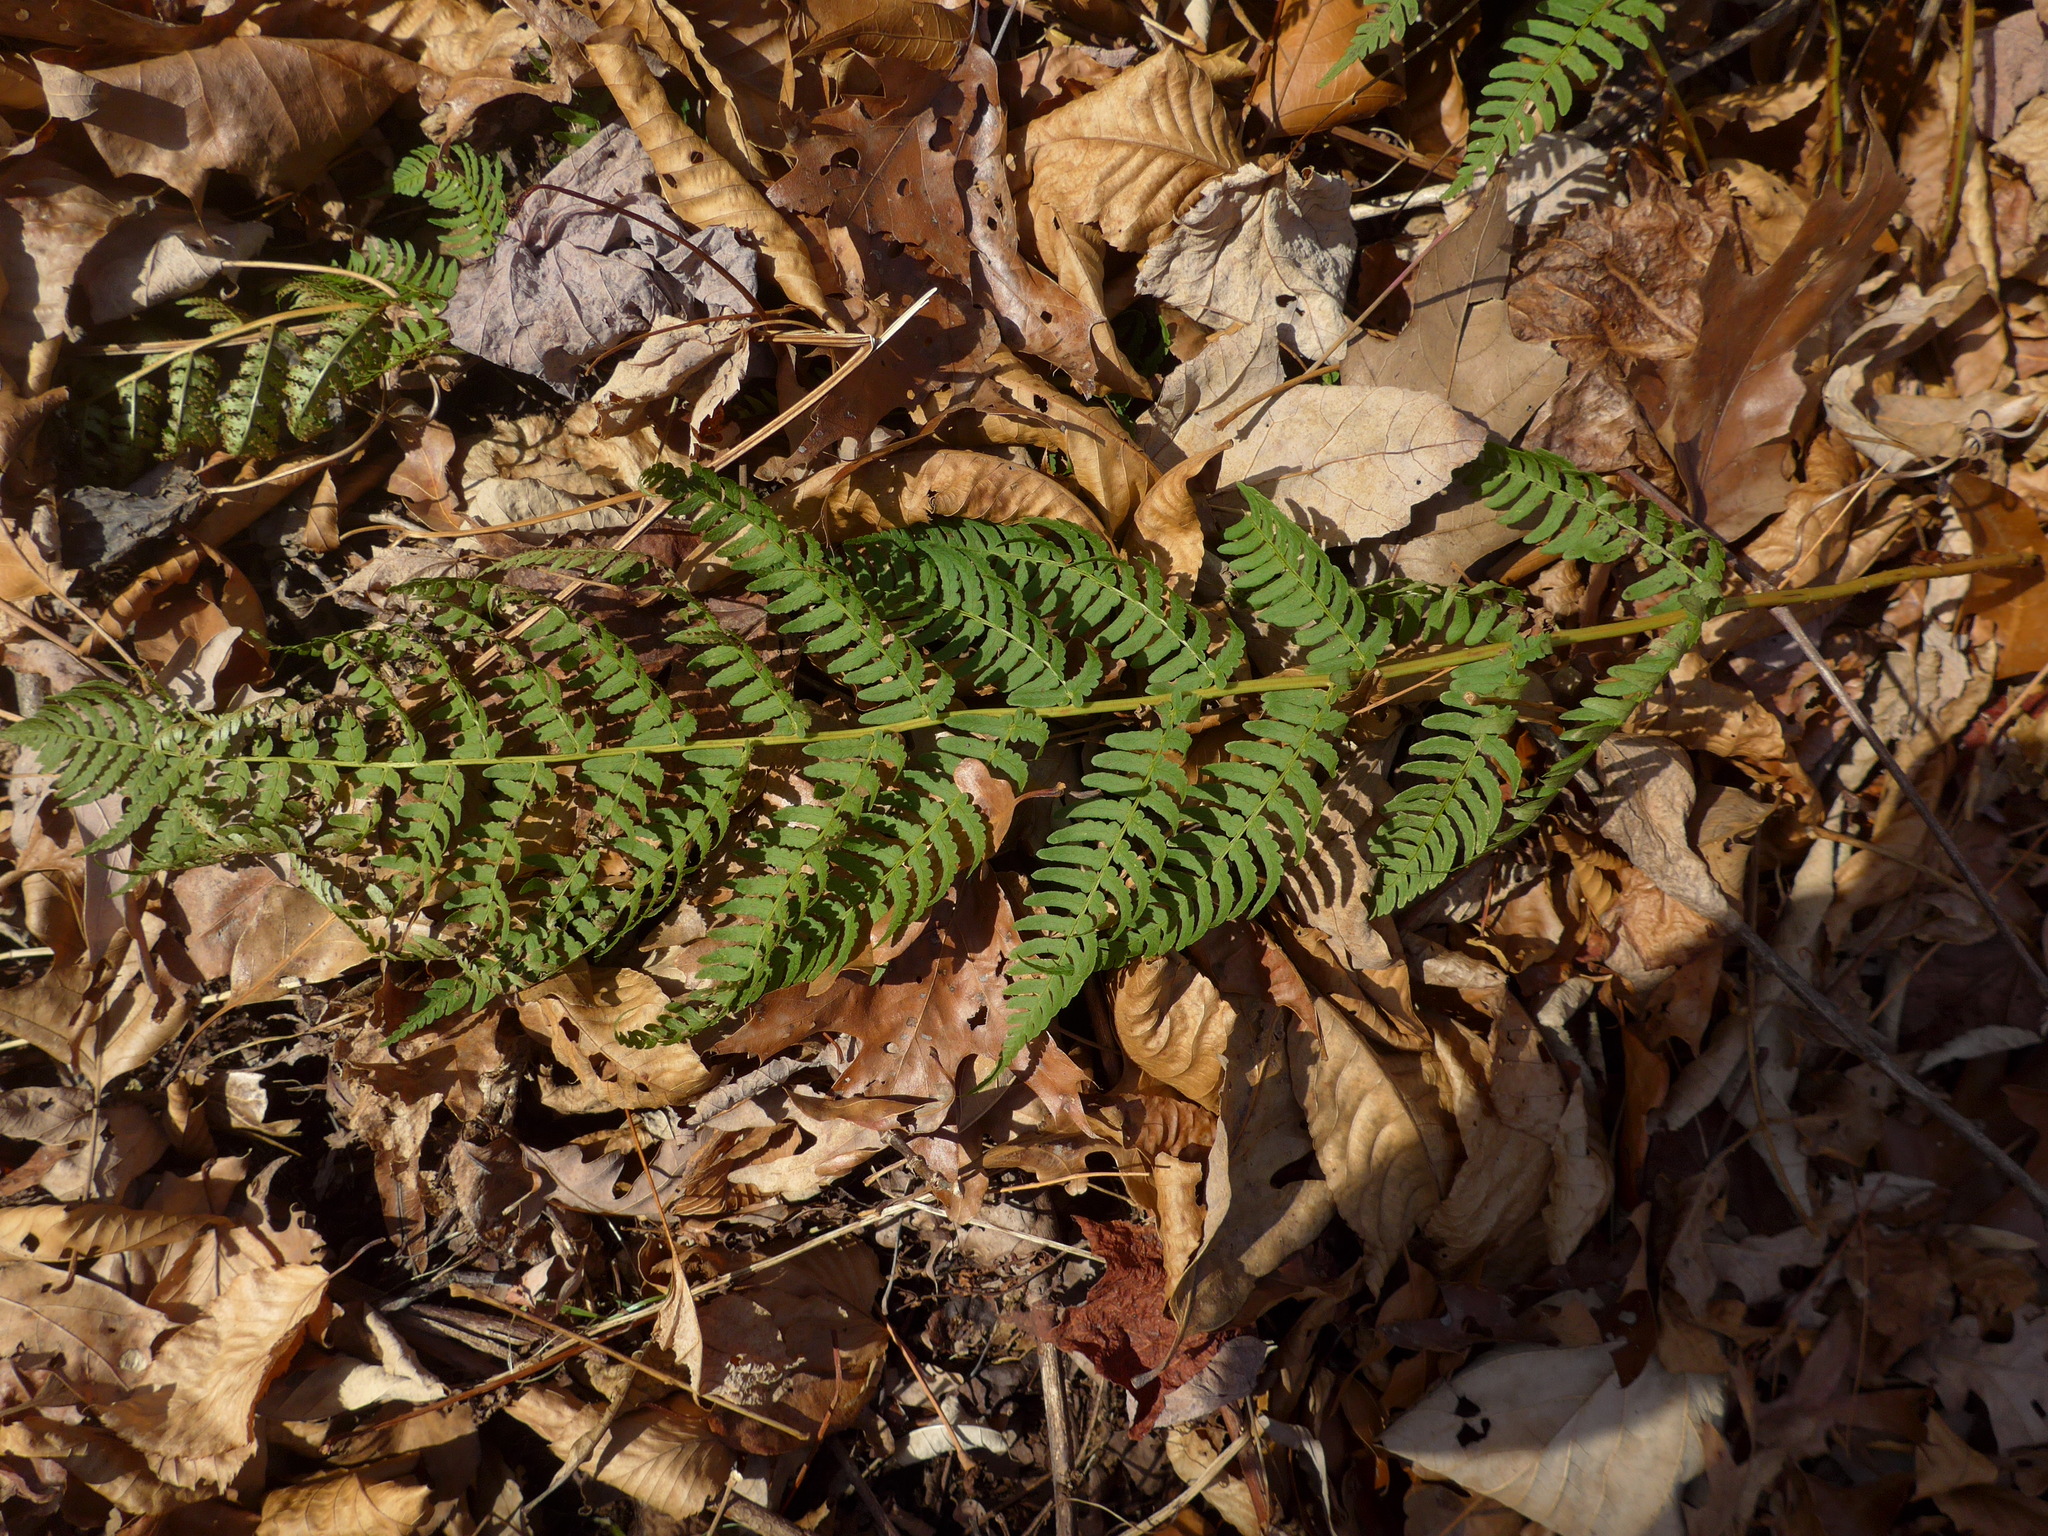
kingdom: Plantae
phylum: Tracheophyta
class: Polypodiopsida
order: Polypodiales
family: Dryopteridaceae
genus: Dryopteris
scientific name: Dryopteris marginalis
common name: Marginal wood fern
